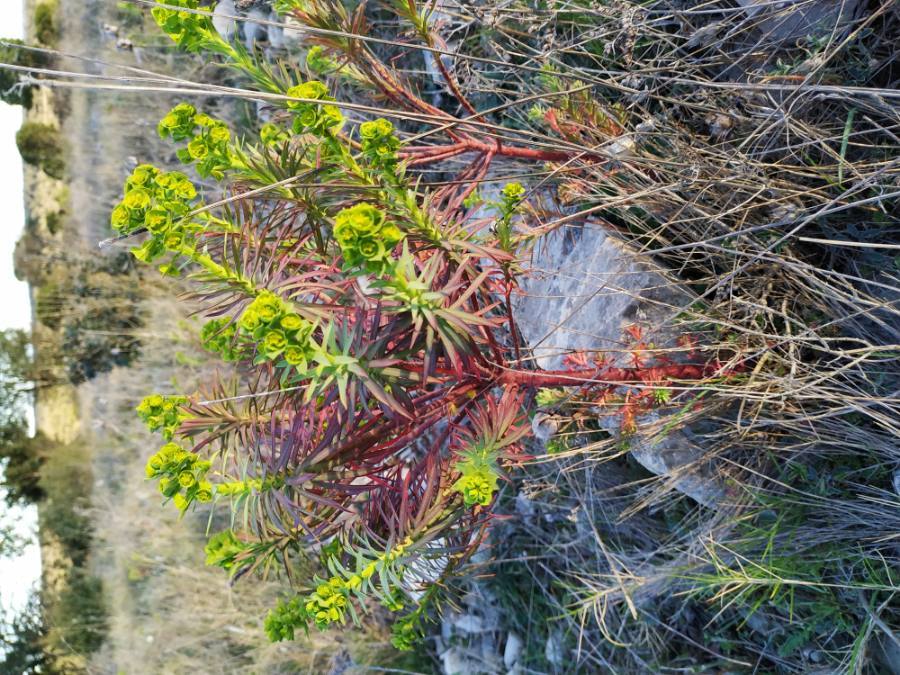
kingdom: Plantae
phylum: Tracheophyta
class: Magnoliopsida
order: Malpighiales
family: Euphorbiaceae
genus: Euphorbia
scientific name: Euphorbia segetalis
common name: Corn spurge
